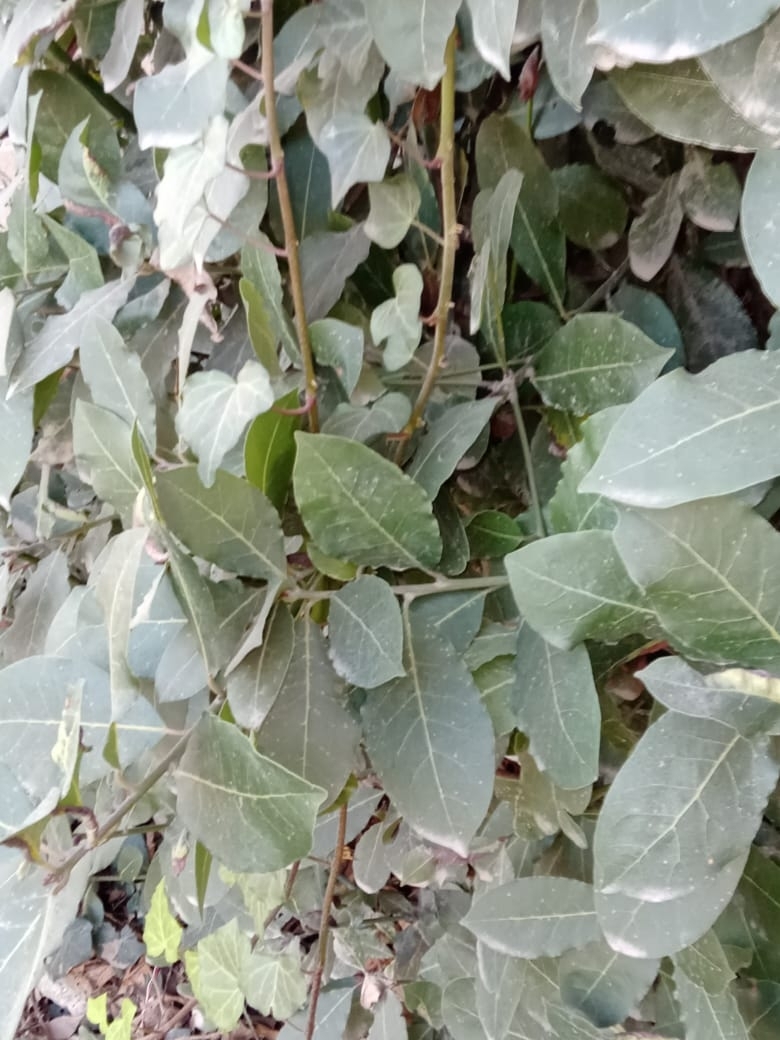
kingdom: Plantae
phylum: Tracheophyta
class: Magnoliopsida
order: Laurales
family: Lauraceae
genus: Laurus
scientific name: Laurus nobilis
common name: Bay
